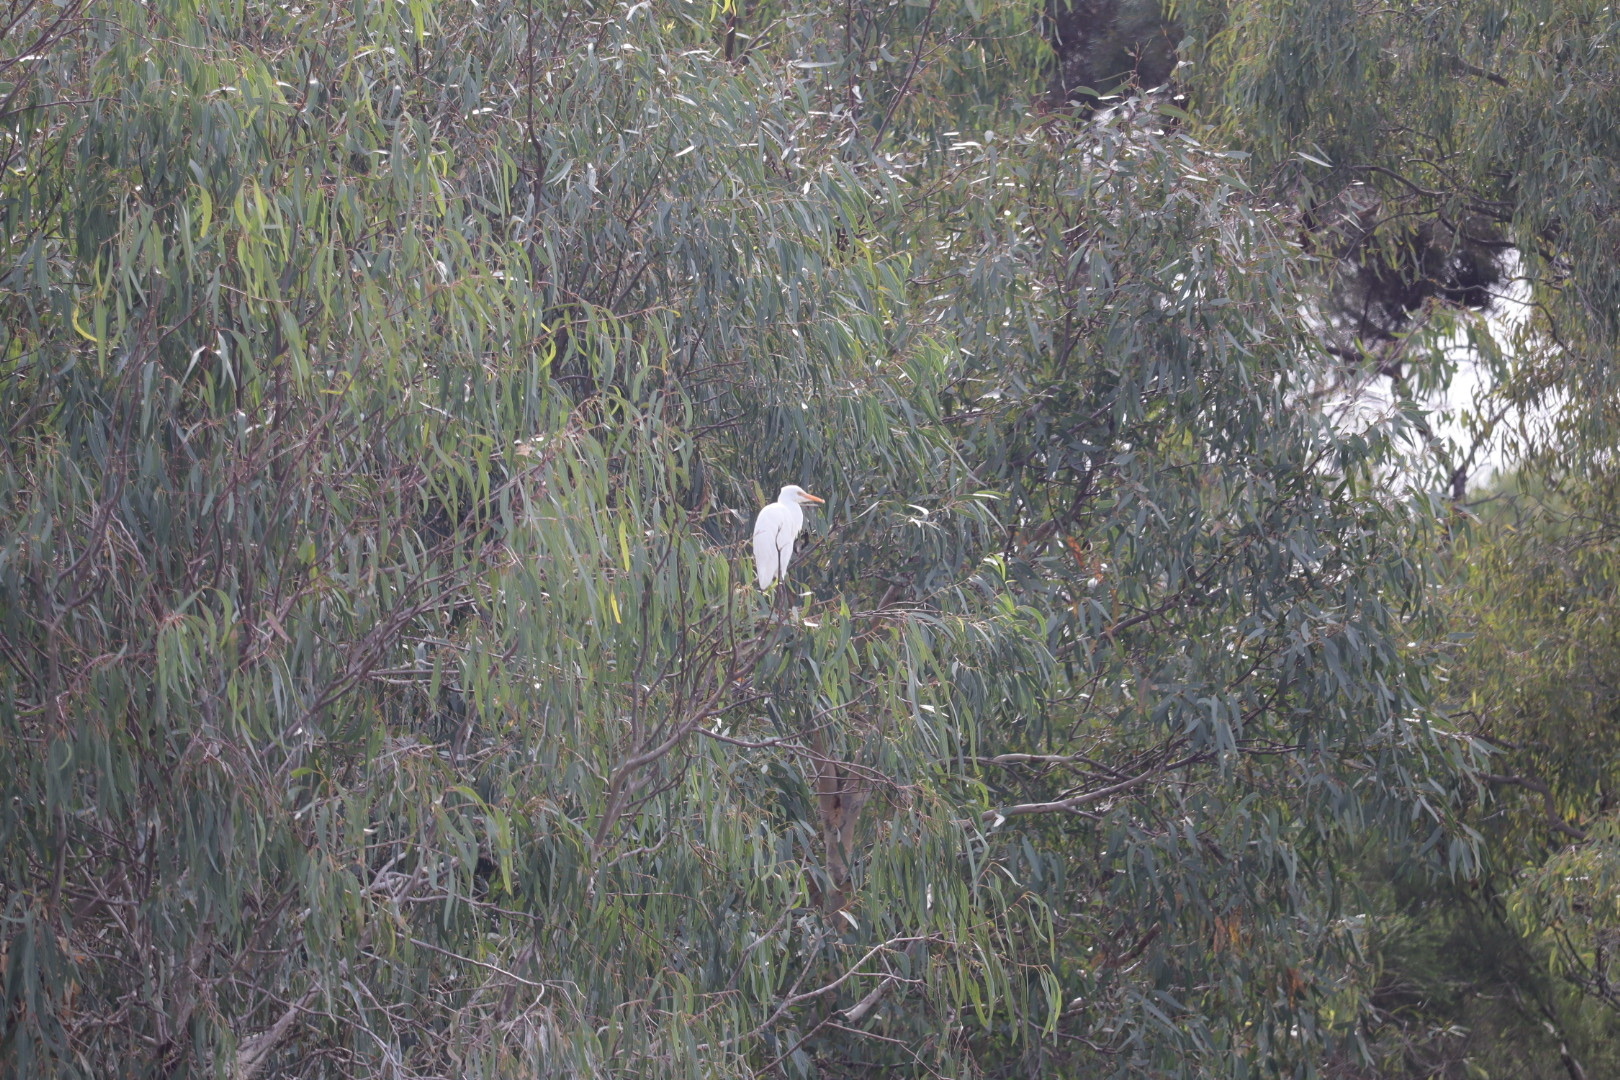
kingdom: Animalia
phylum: Chordata
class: Aves
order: Pelecaniformes
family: Ardeidae
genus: Bubulcus
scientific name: Bubulcus coromandus
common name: Eastern cattle egret
